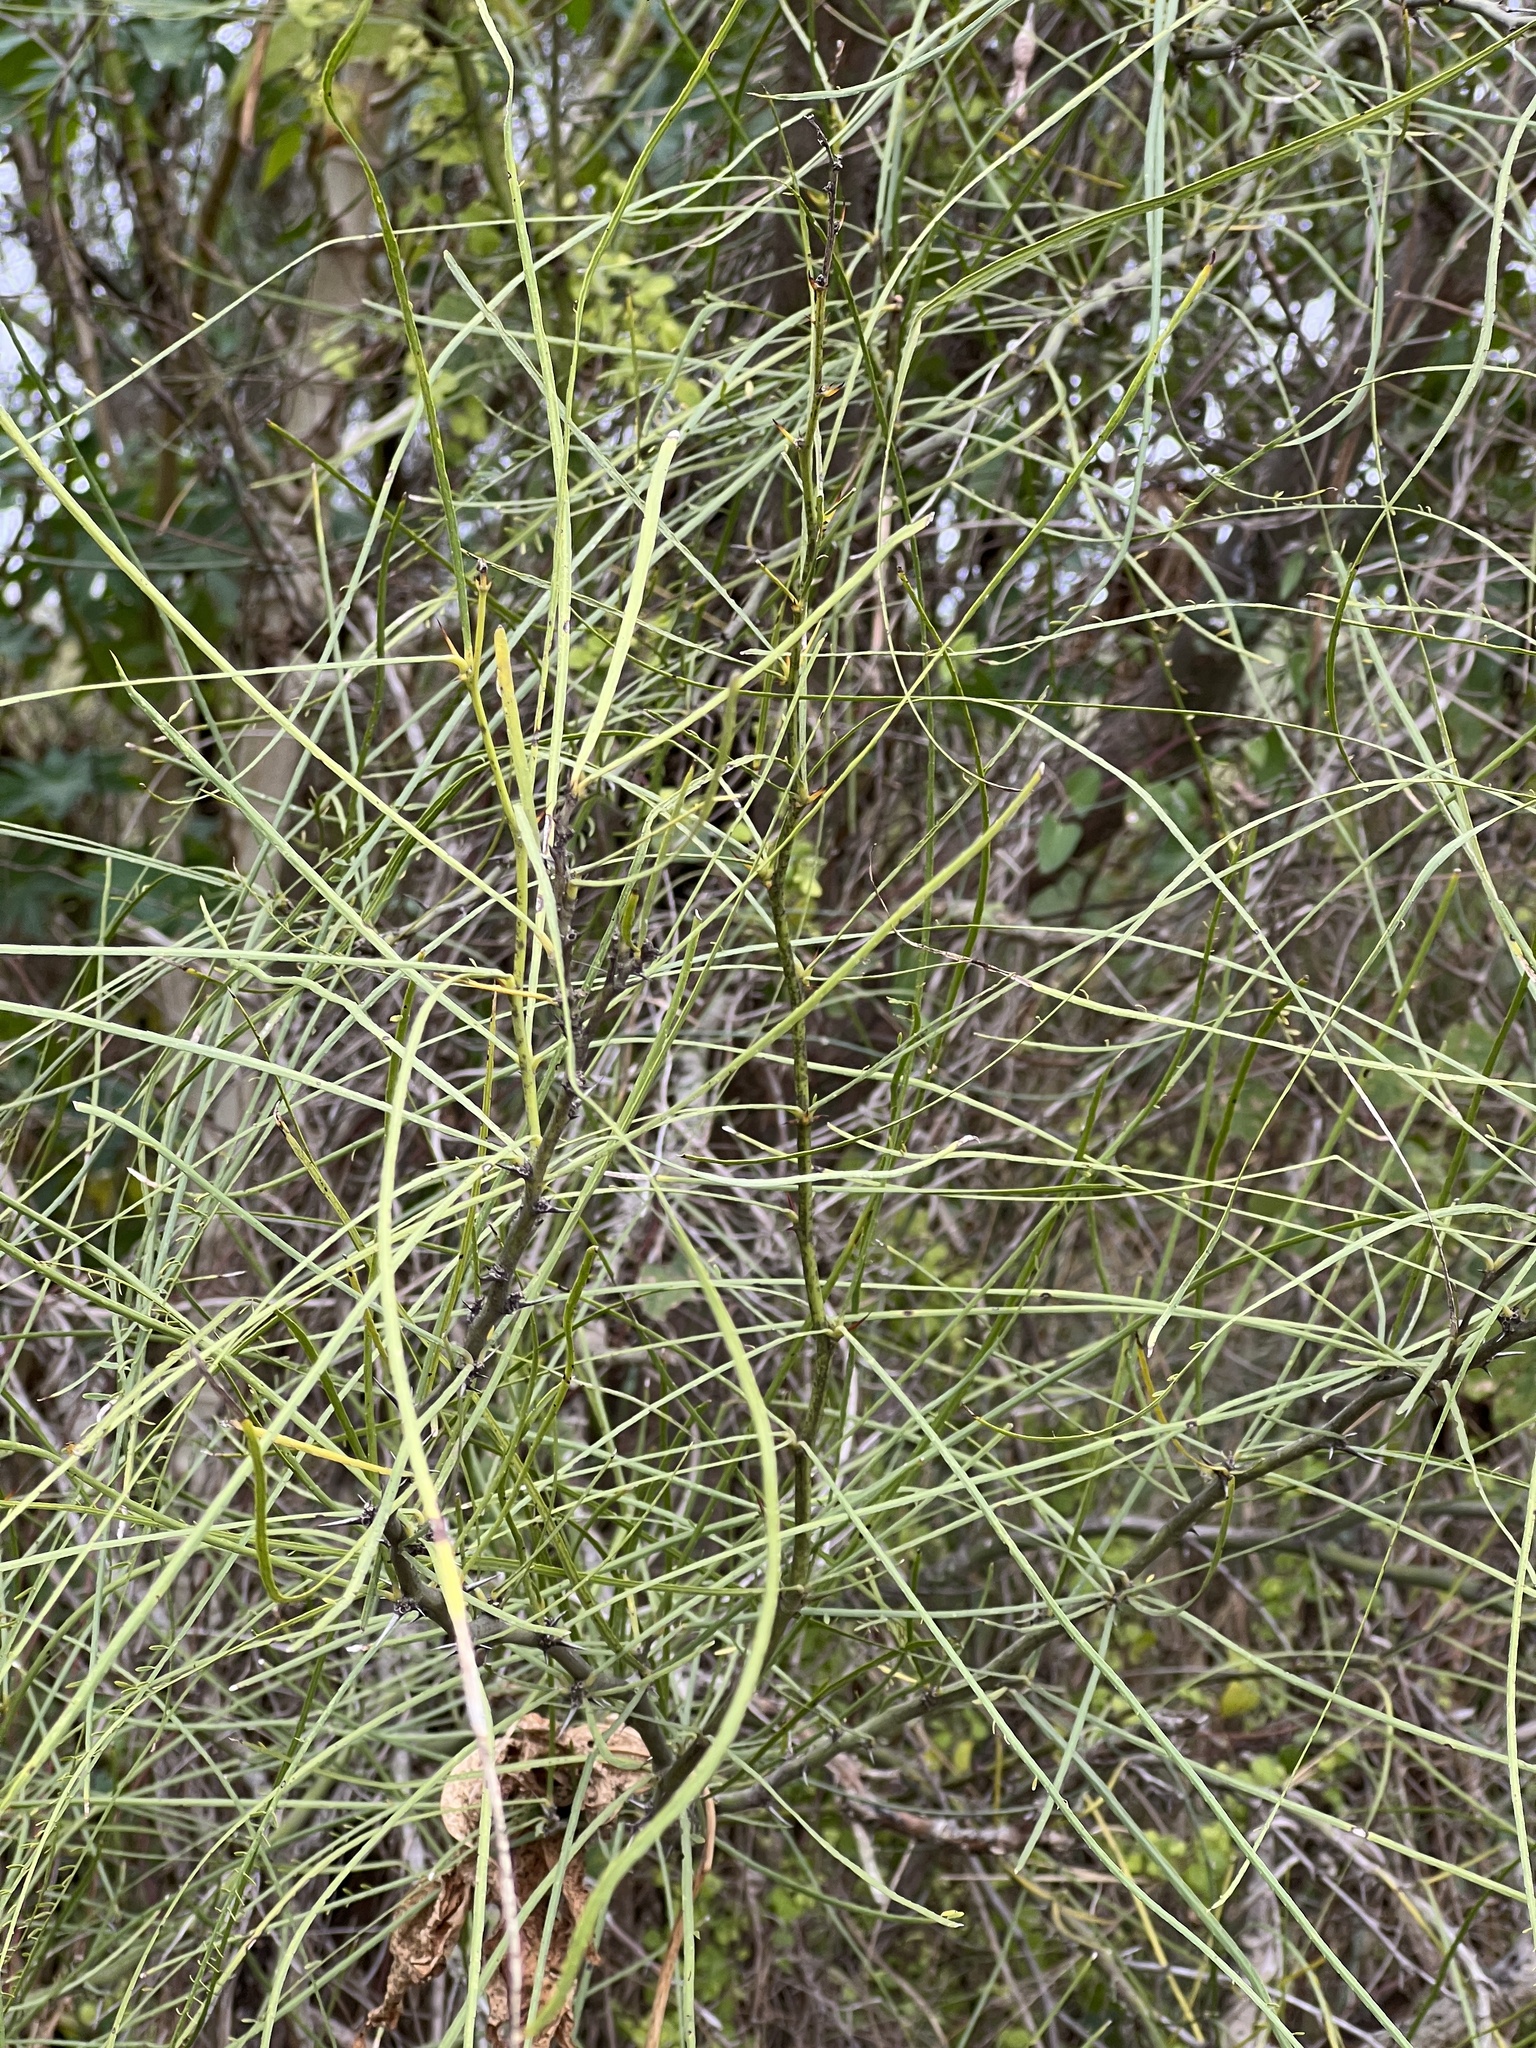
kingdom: Plantae
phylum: Tracheophyta
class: Magnoliopsida
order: Fabales
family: Fabaceae
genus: Parkinsonia
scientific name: Parkinsonia aculeata
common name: Jerusalem thorn
